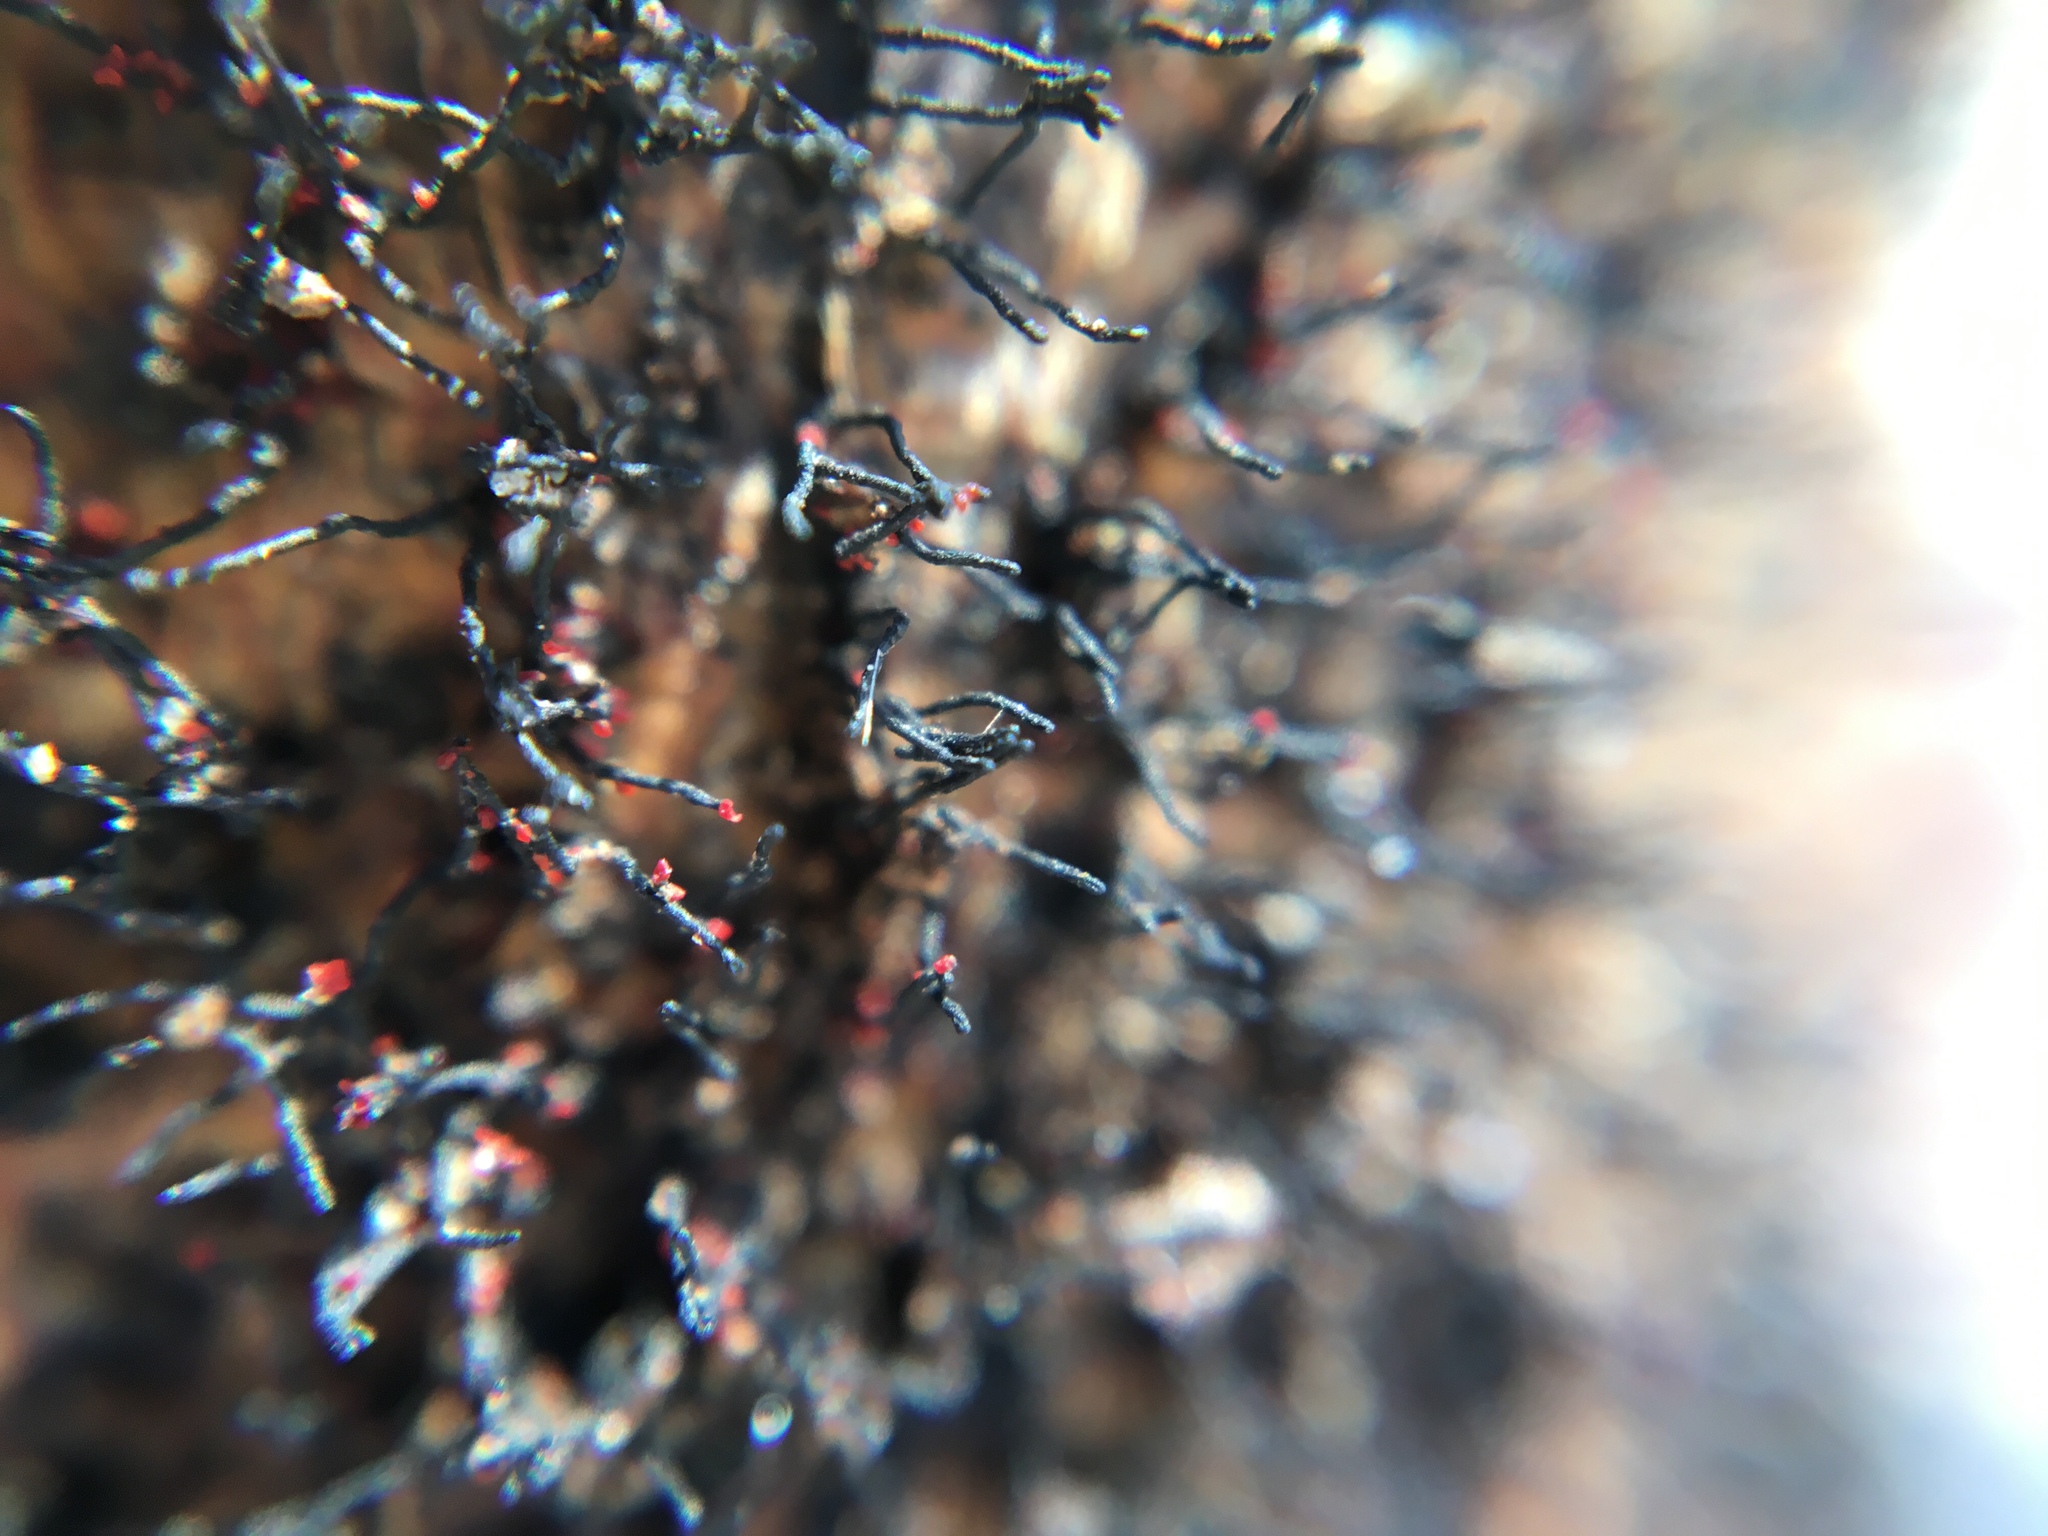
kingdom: Fungi
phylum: Ascomycota
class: Sordariomycetes
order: Xylariales
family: Diatrypaceae
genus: Peroneutypa
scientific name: Peroneutypa scoparia
